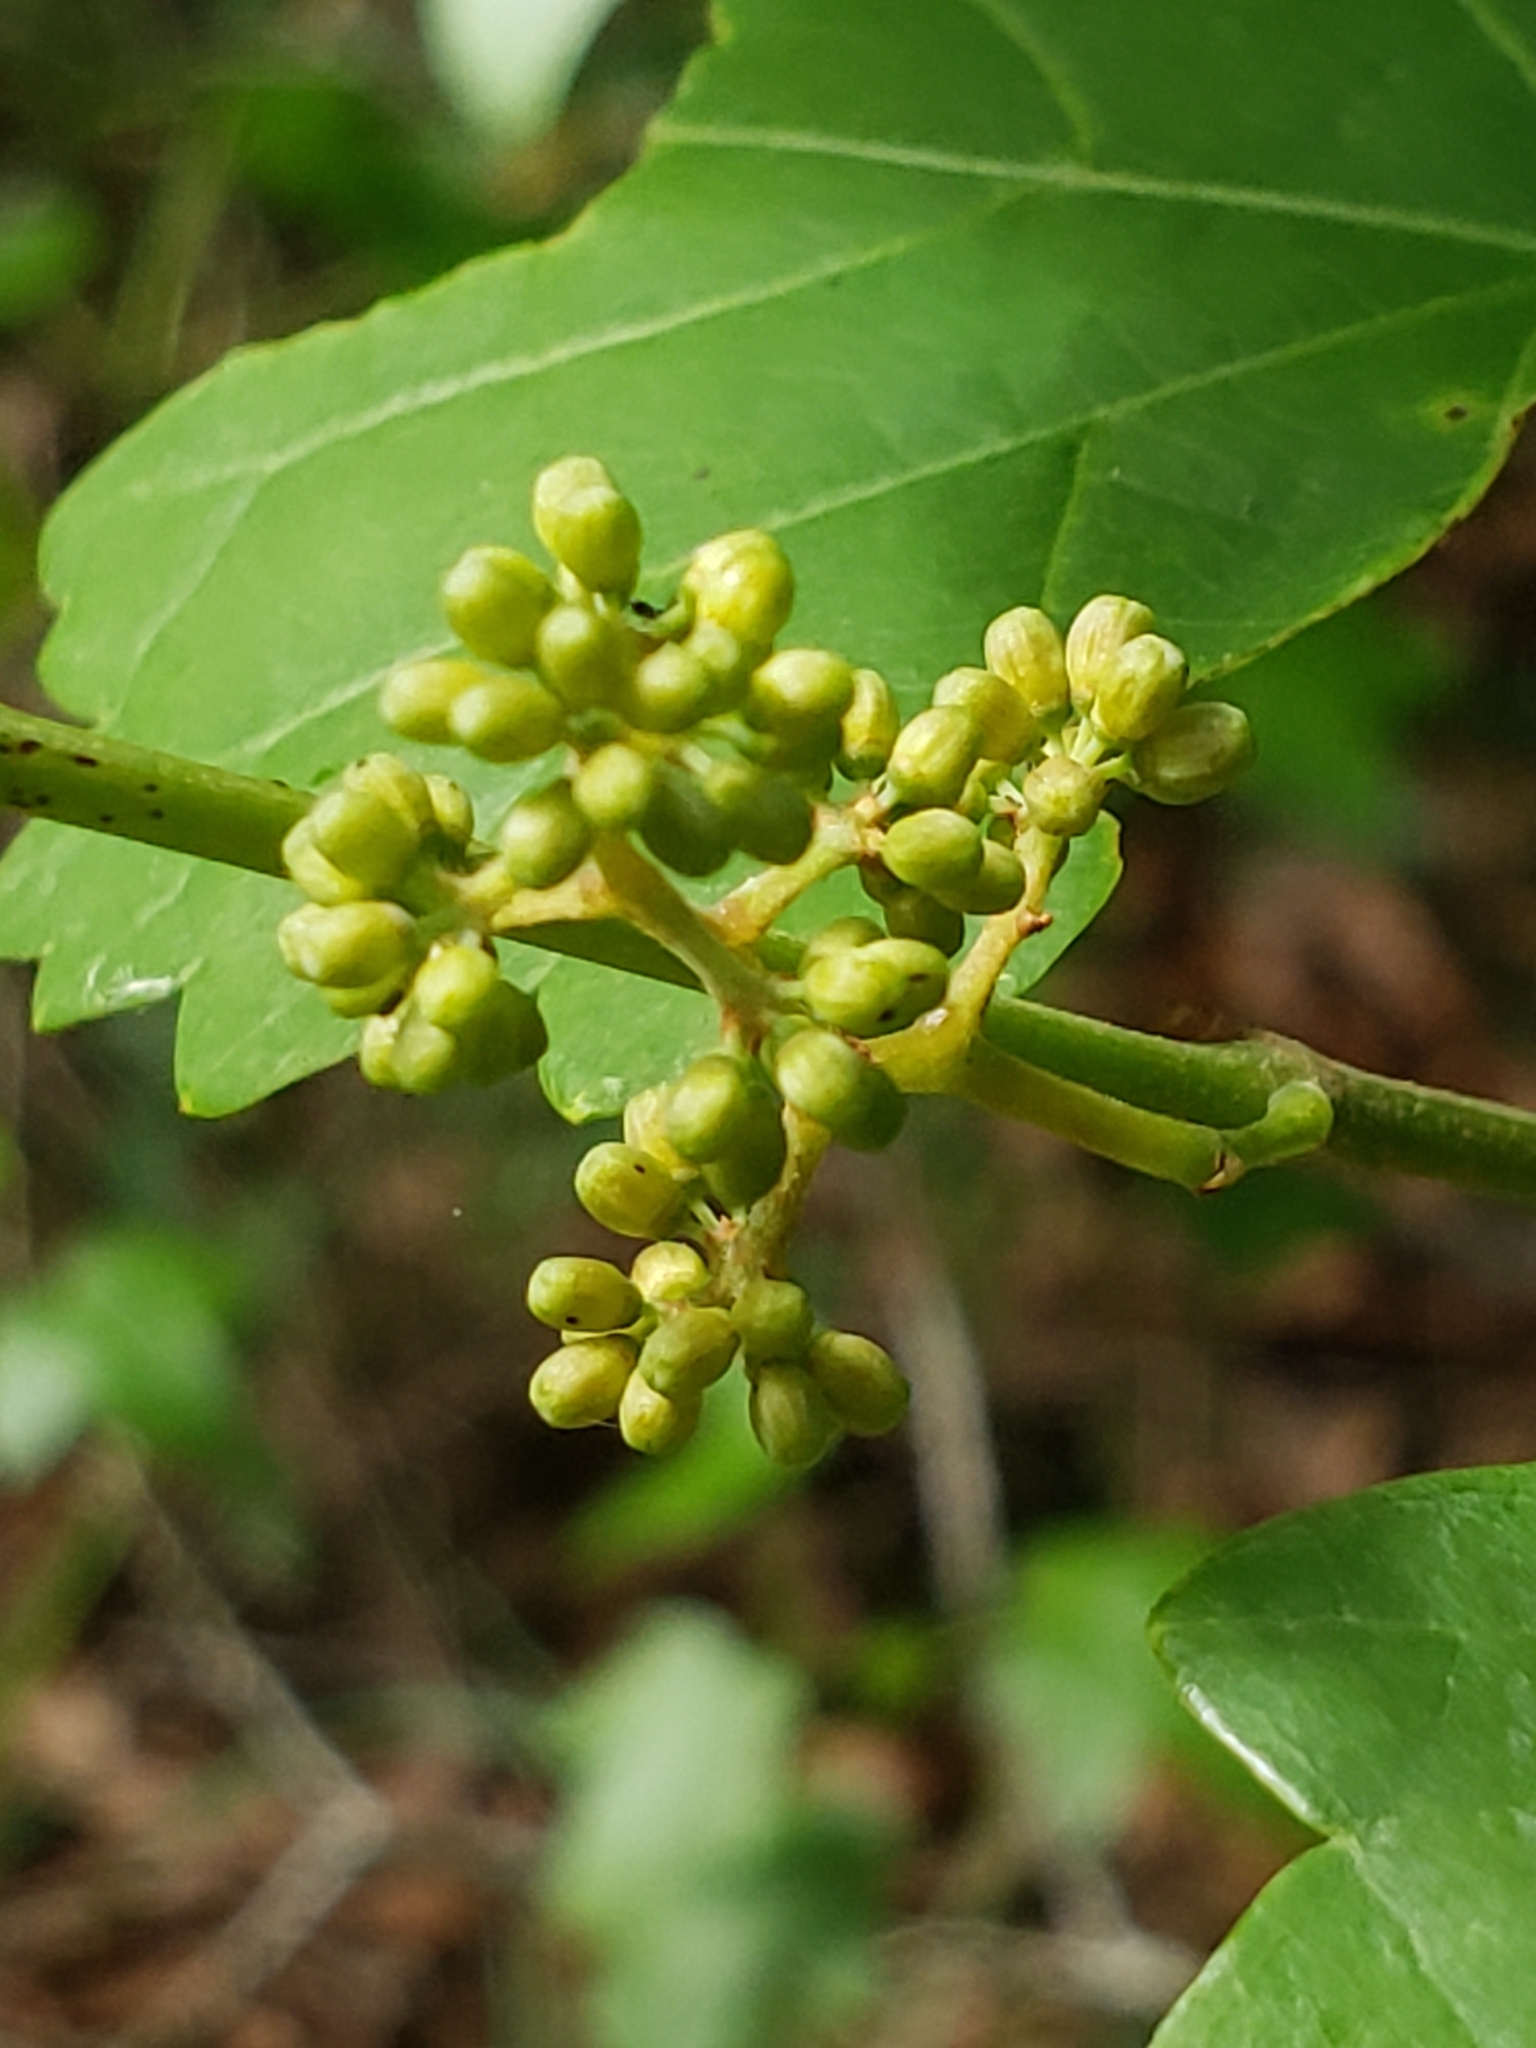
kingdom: Plantae
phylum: Tracheophyta
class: Magnoliopsida
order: Rosales
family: Rhamnaceae
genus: Berchemia
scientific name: Berchemia scandens
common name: Supplejack
